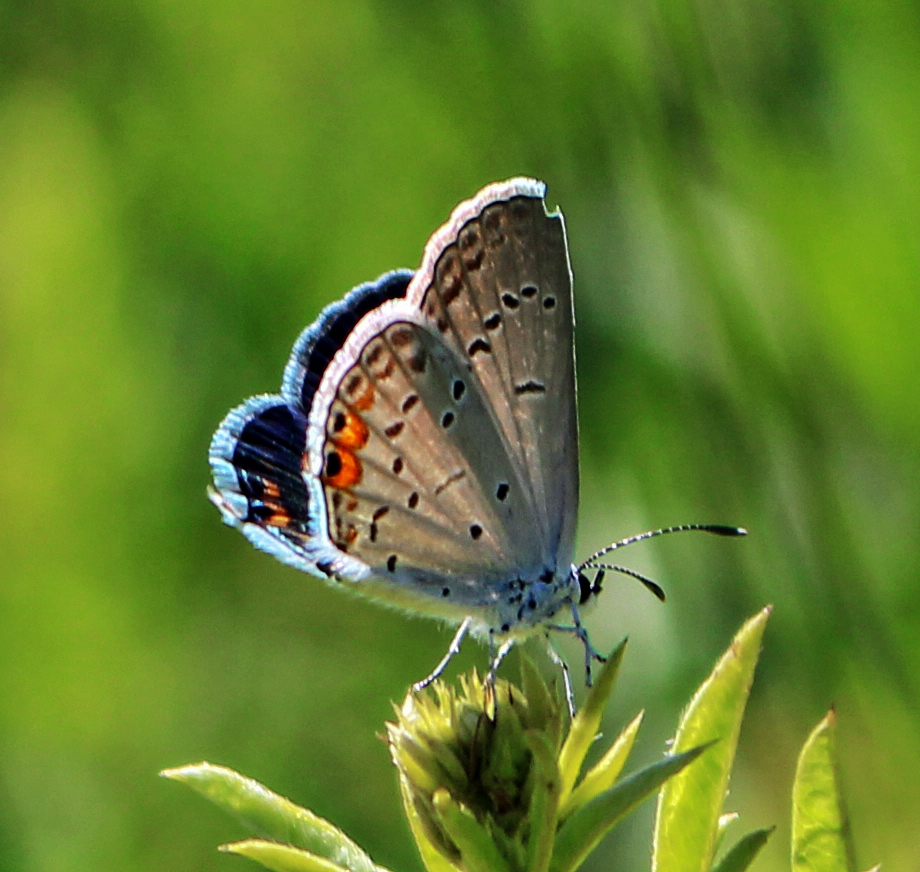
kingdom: Animalia
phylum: Arthropoda
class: Insecta
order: Lepidoptera
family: Lycaenidae
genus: Elkalyce
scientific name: Elkalyce comyntas
